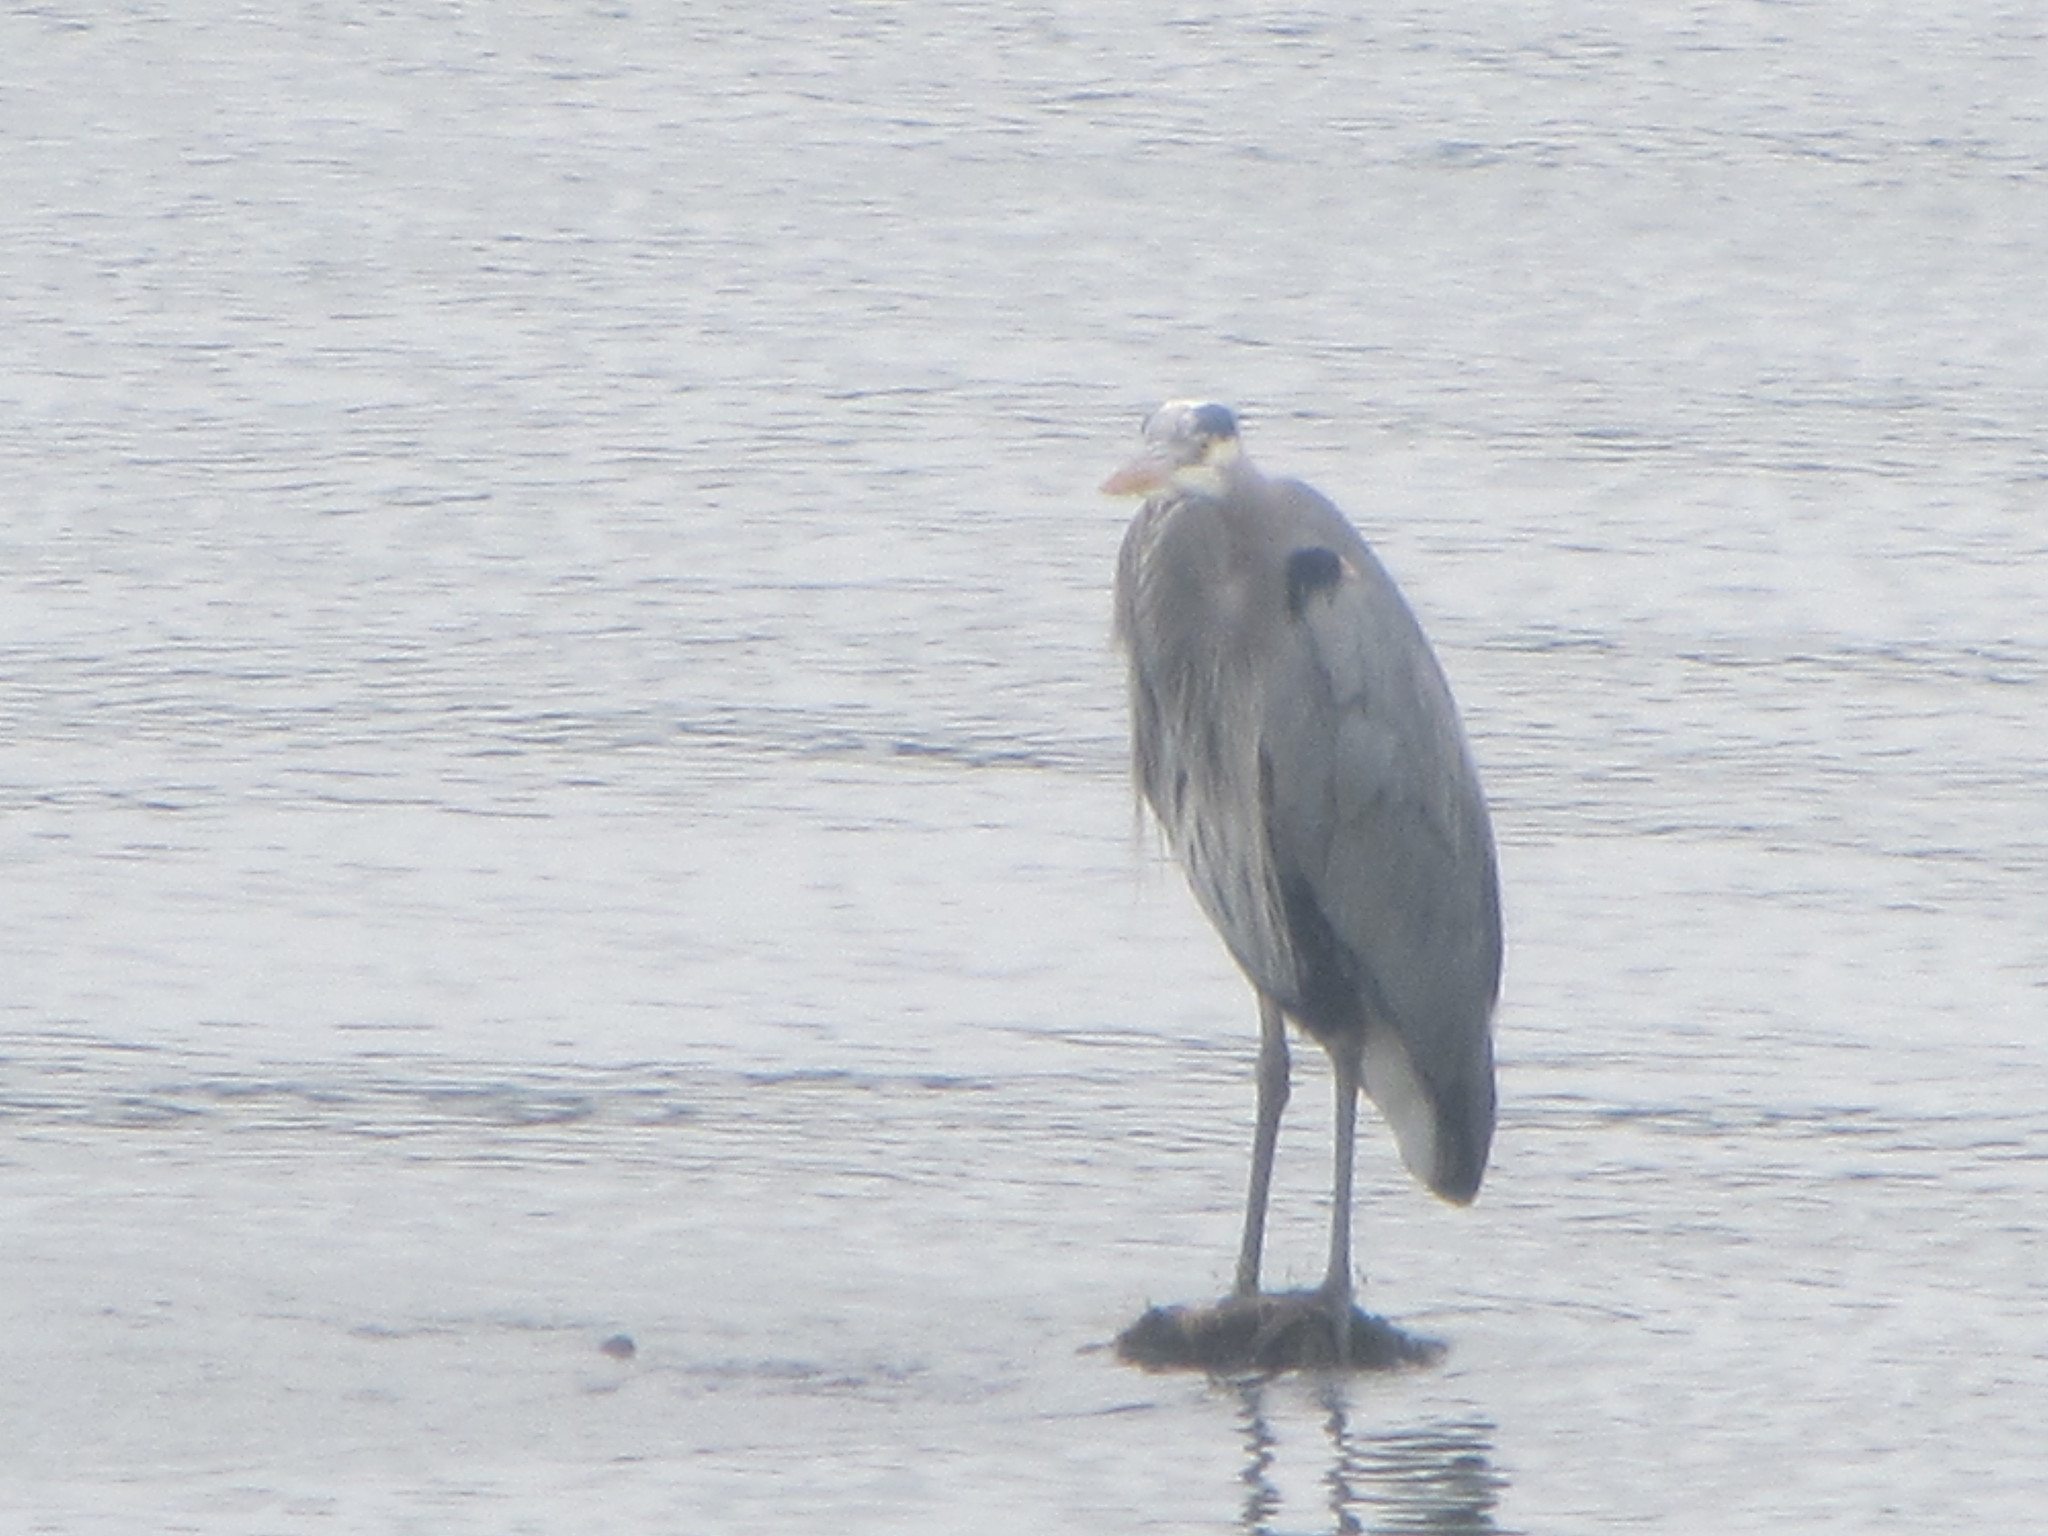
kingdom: Animalia
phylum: Chordata
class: Aves
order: Pelecaniformes
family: Ardeidae
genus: Ardea
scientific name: Ardea herodias
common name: Great blue heron
